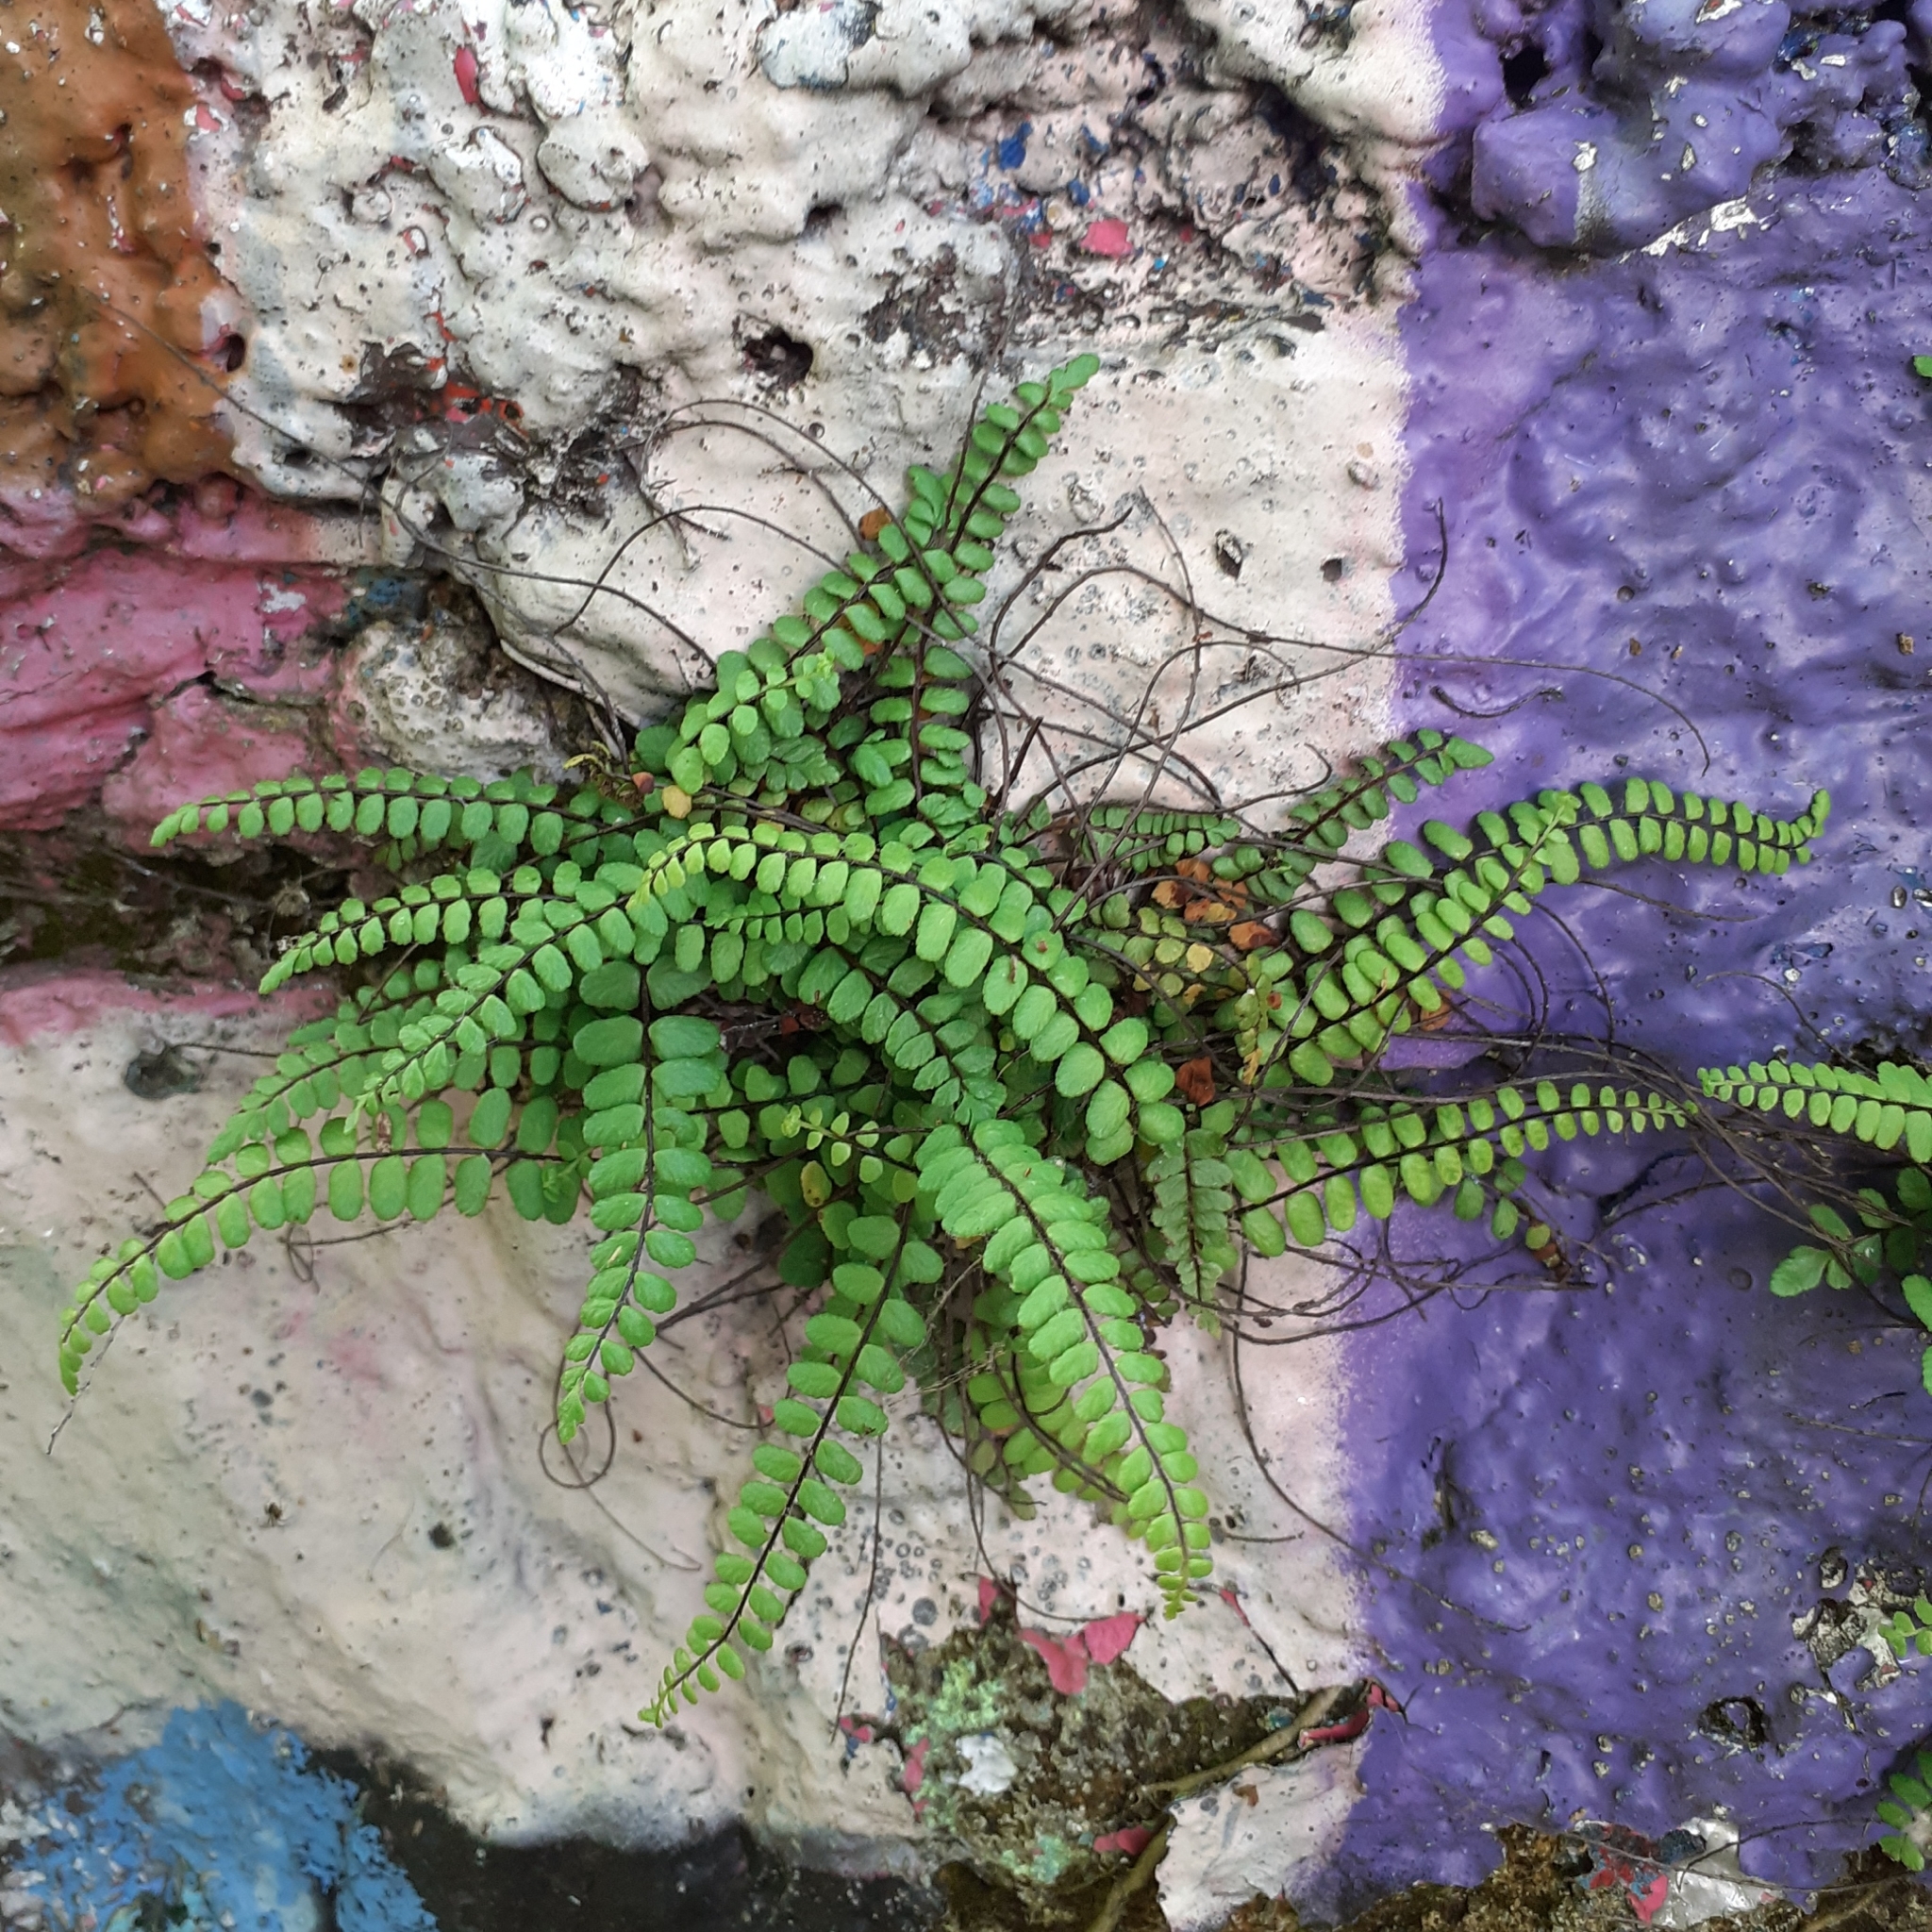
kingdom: Plantae
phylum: Tracheophyta
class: Polypodiopsida
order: Polypodiales
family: Aspleniaceae
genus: Asplenium
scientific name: Asplenium trichomanes
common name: Maidenhair spleenwort
